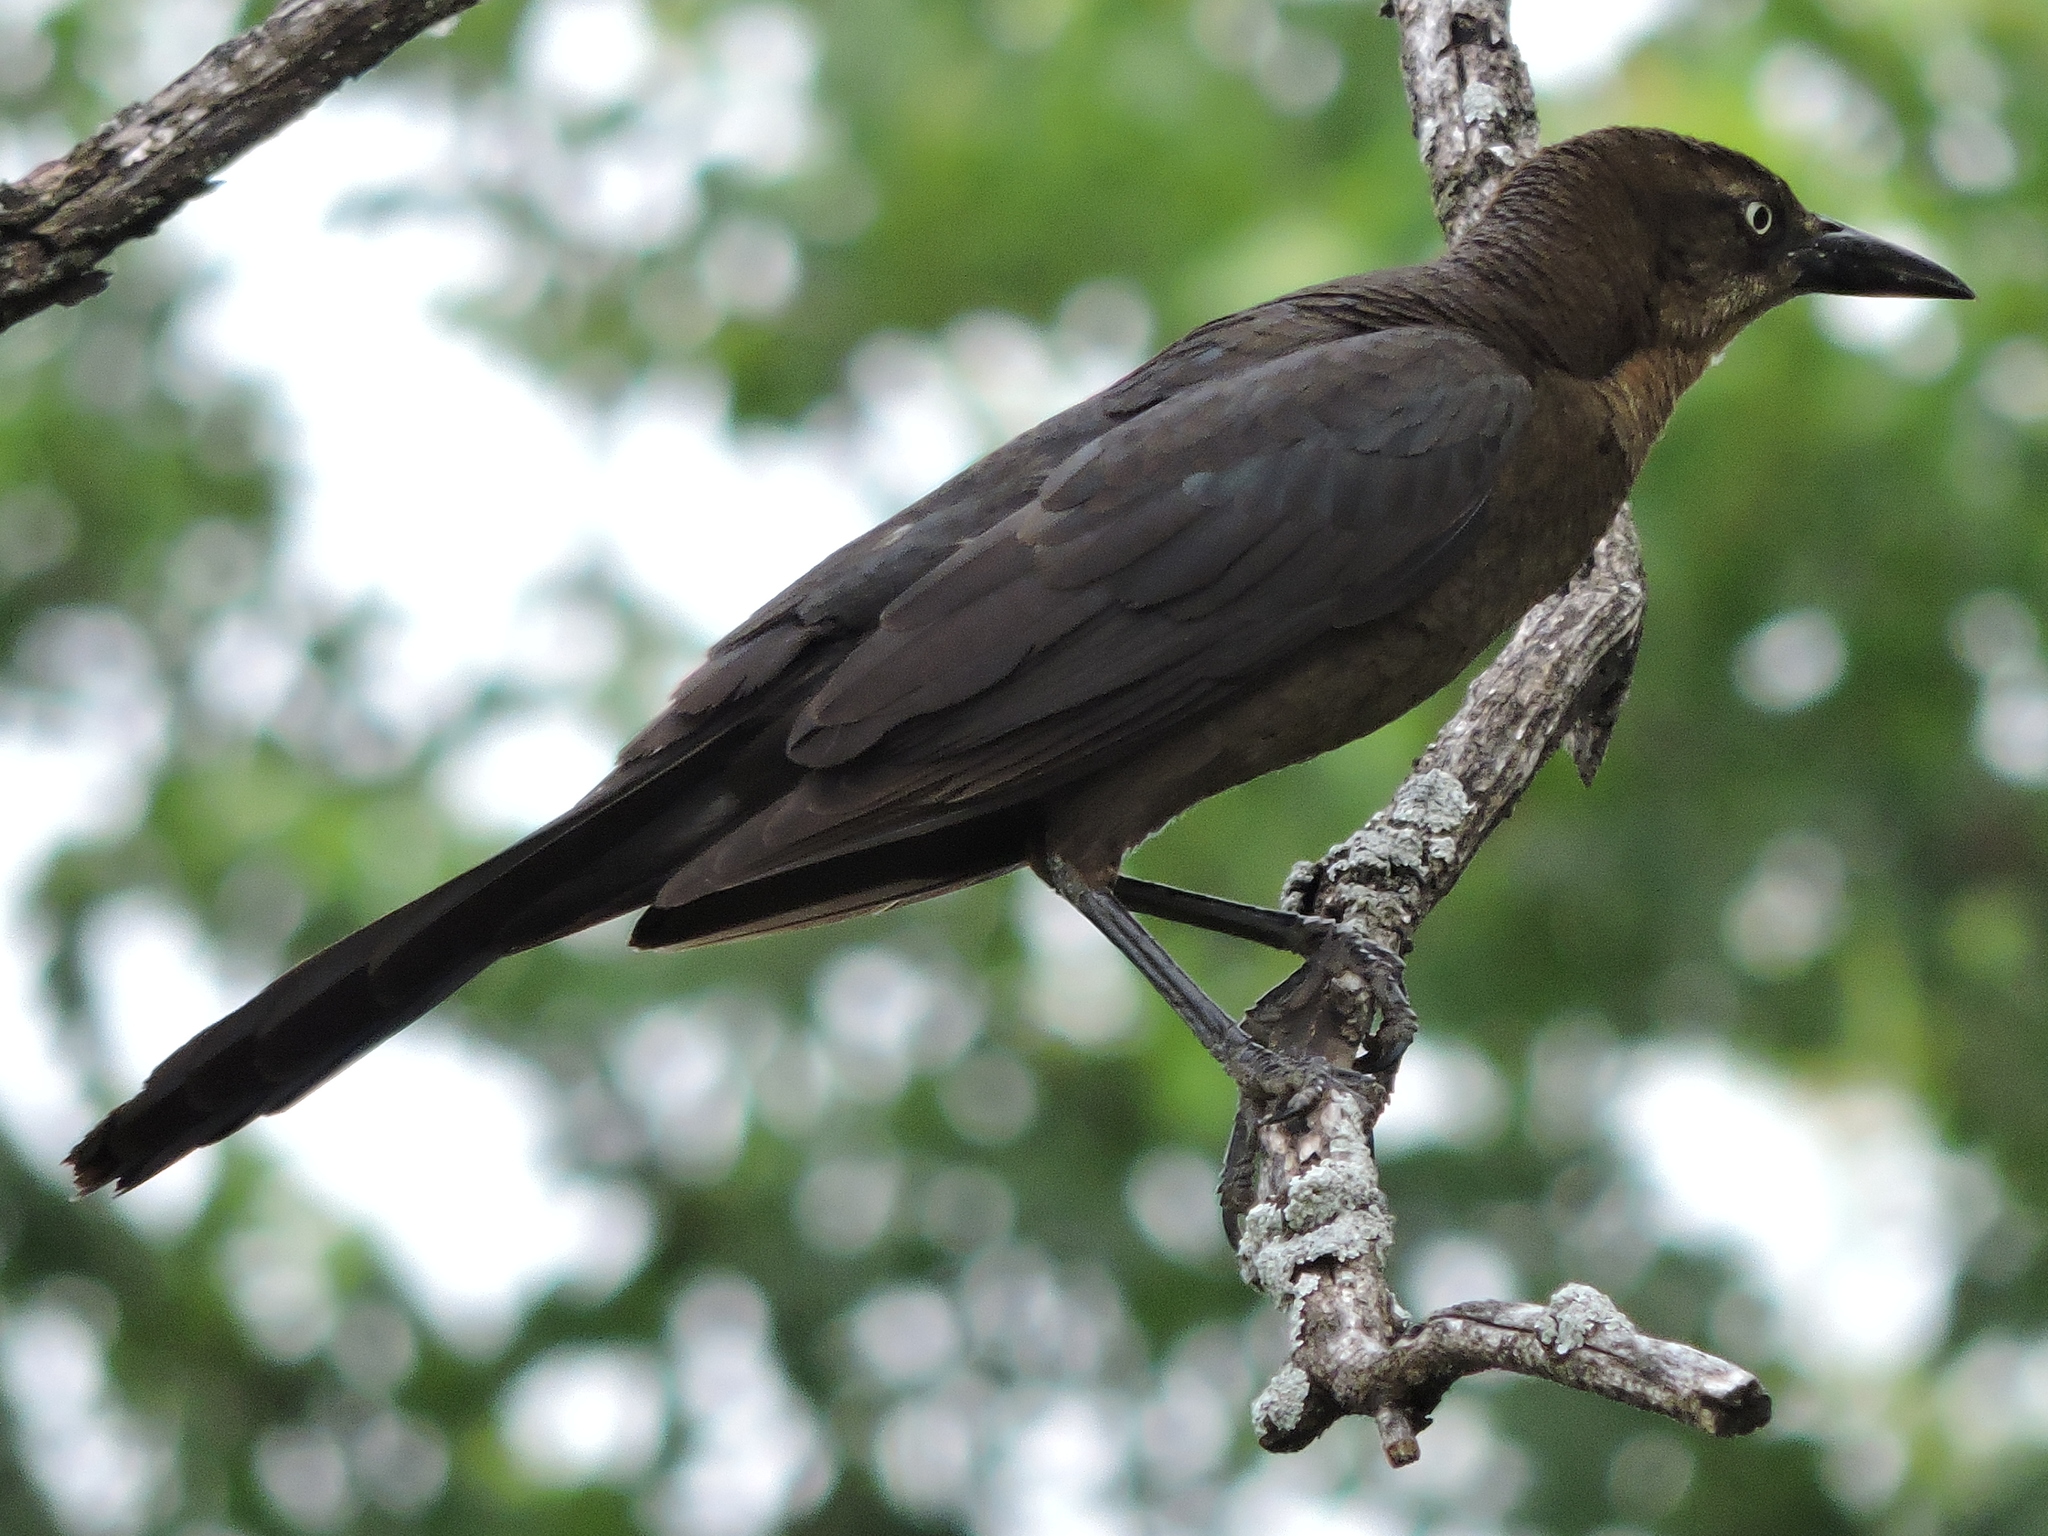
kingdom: Animalia
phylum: Chordata
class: Aves
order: Passeriformes
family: Icteridae
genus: Quiscalus
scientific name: Quiscalus mexicanus
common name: Great-tailed grackle
